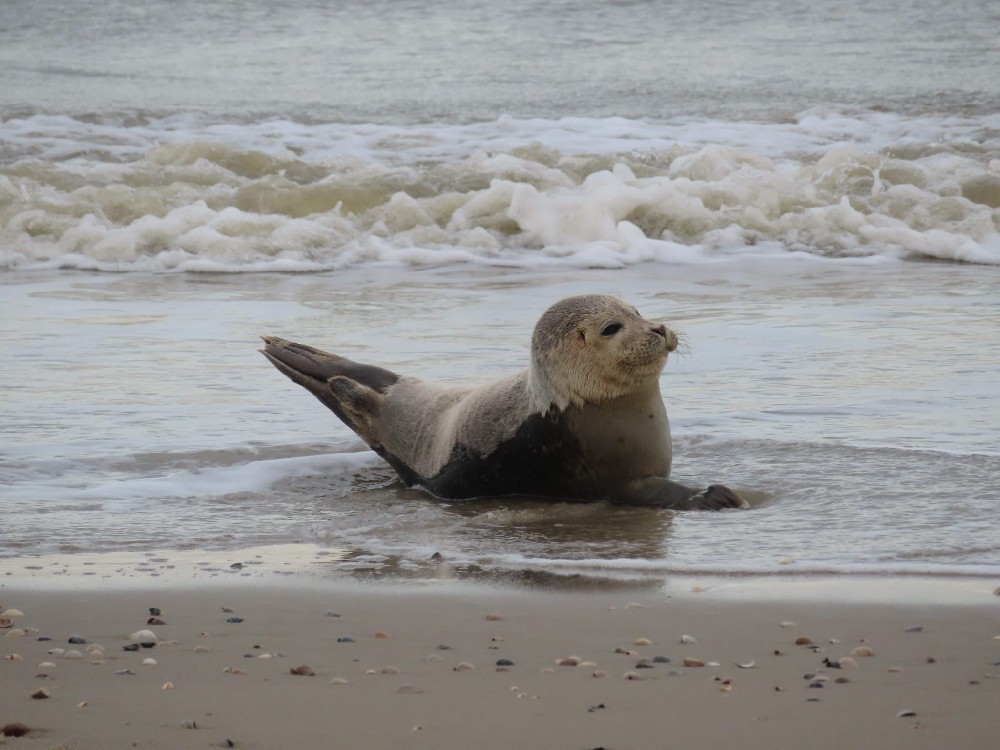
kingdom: Animalia
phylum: Chordata
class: Mammalia
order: Carnivora
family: Phocidae
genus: Phoca
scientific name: Phoca vitulina
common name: Harbor seal
